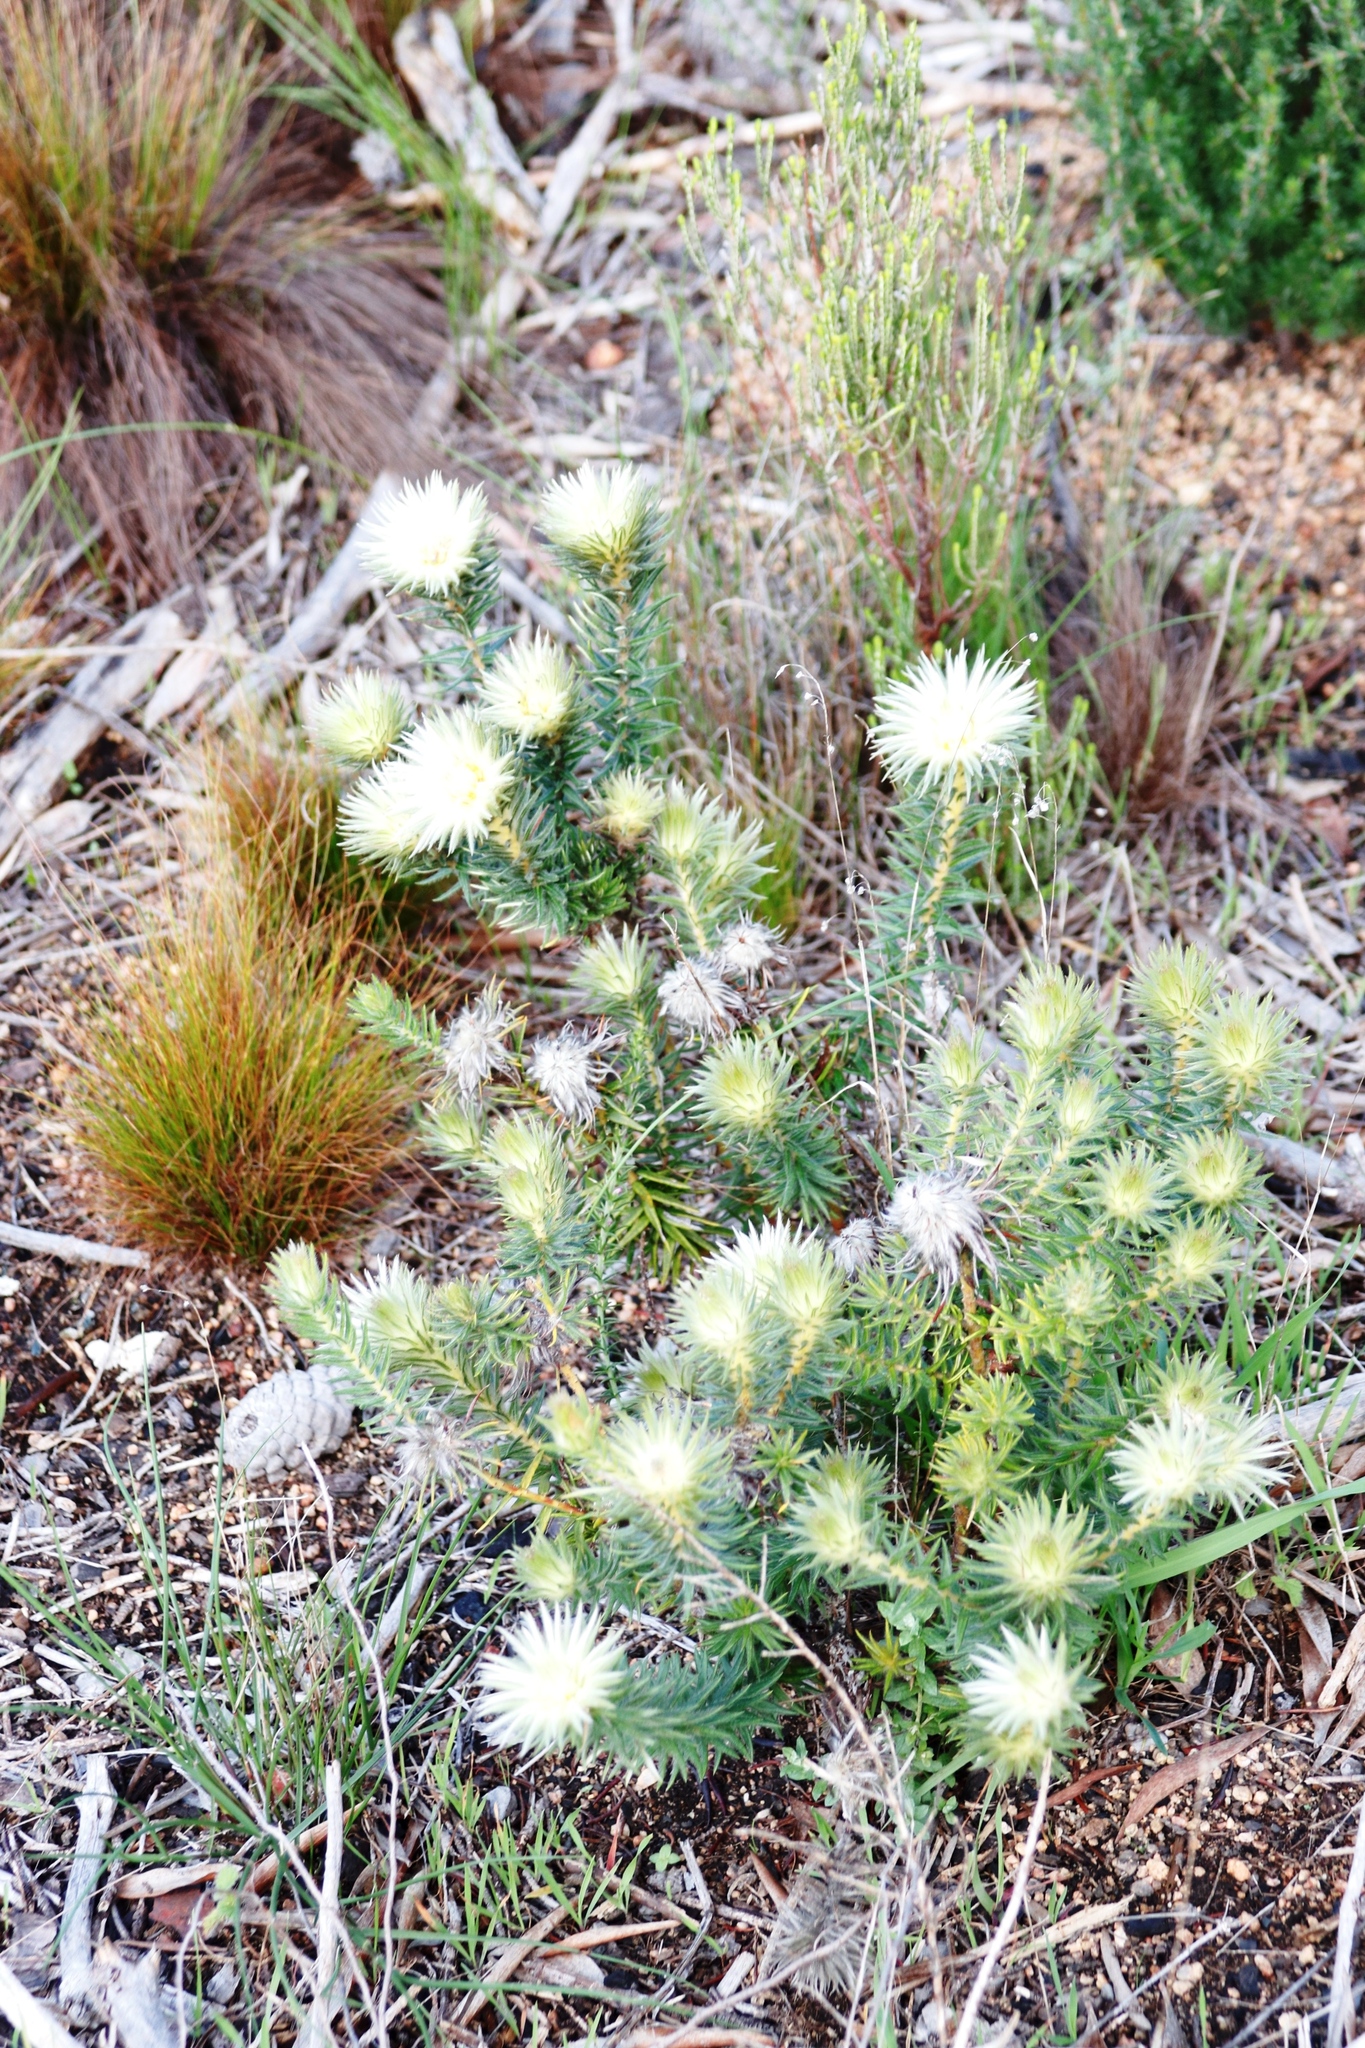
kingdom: Plantae
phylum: Tracheophyta
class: Magnoliopsida
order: Rosales
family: Rhamnaceae
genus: Phylica
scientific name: Phylica plumosa
